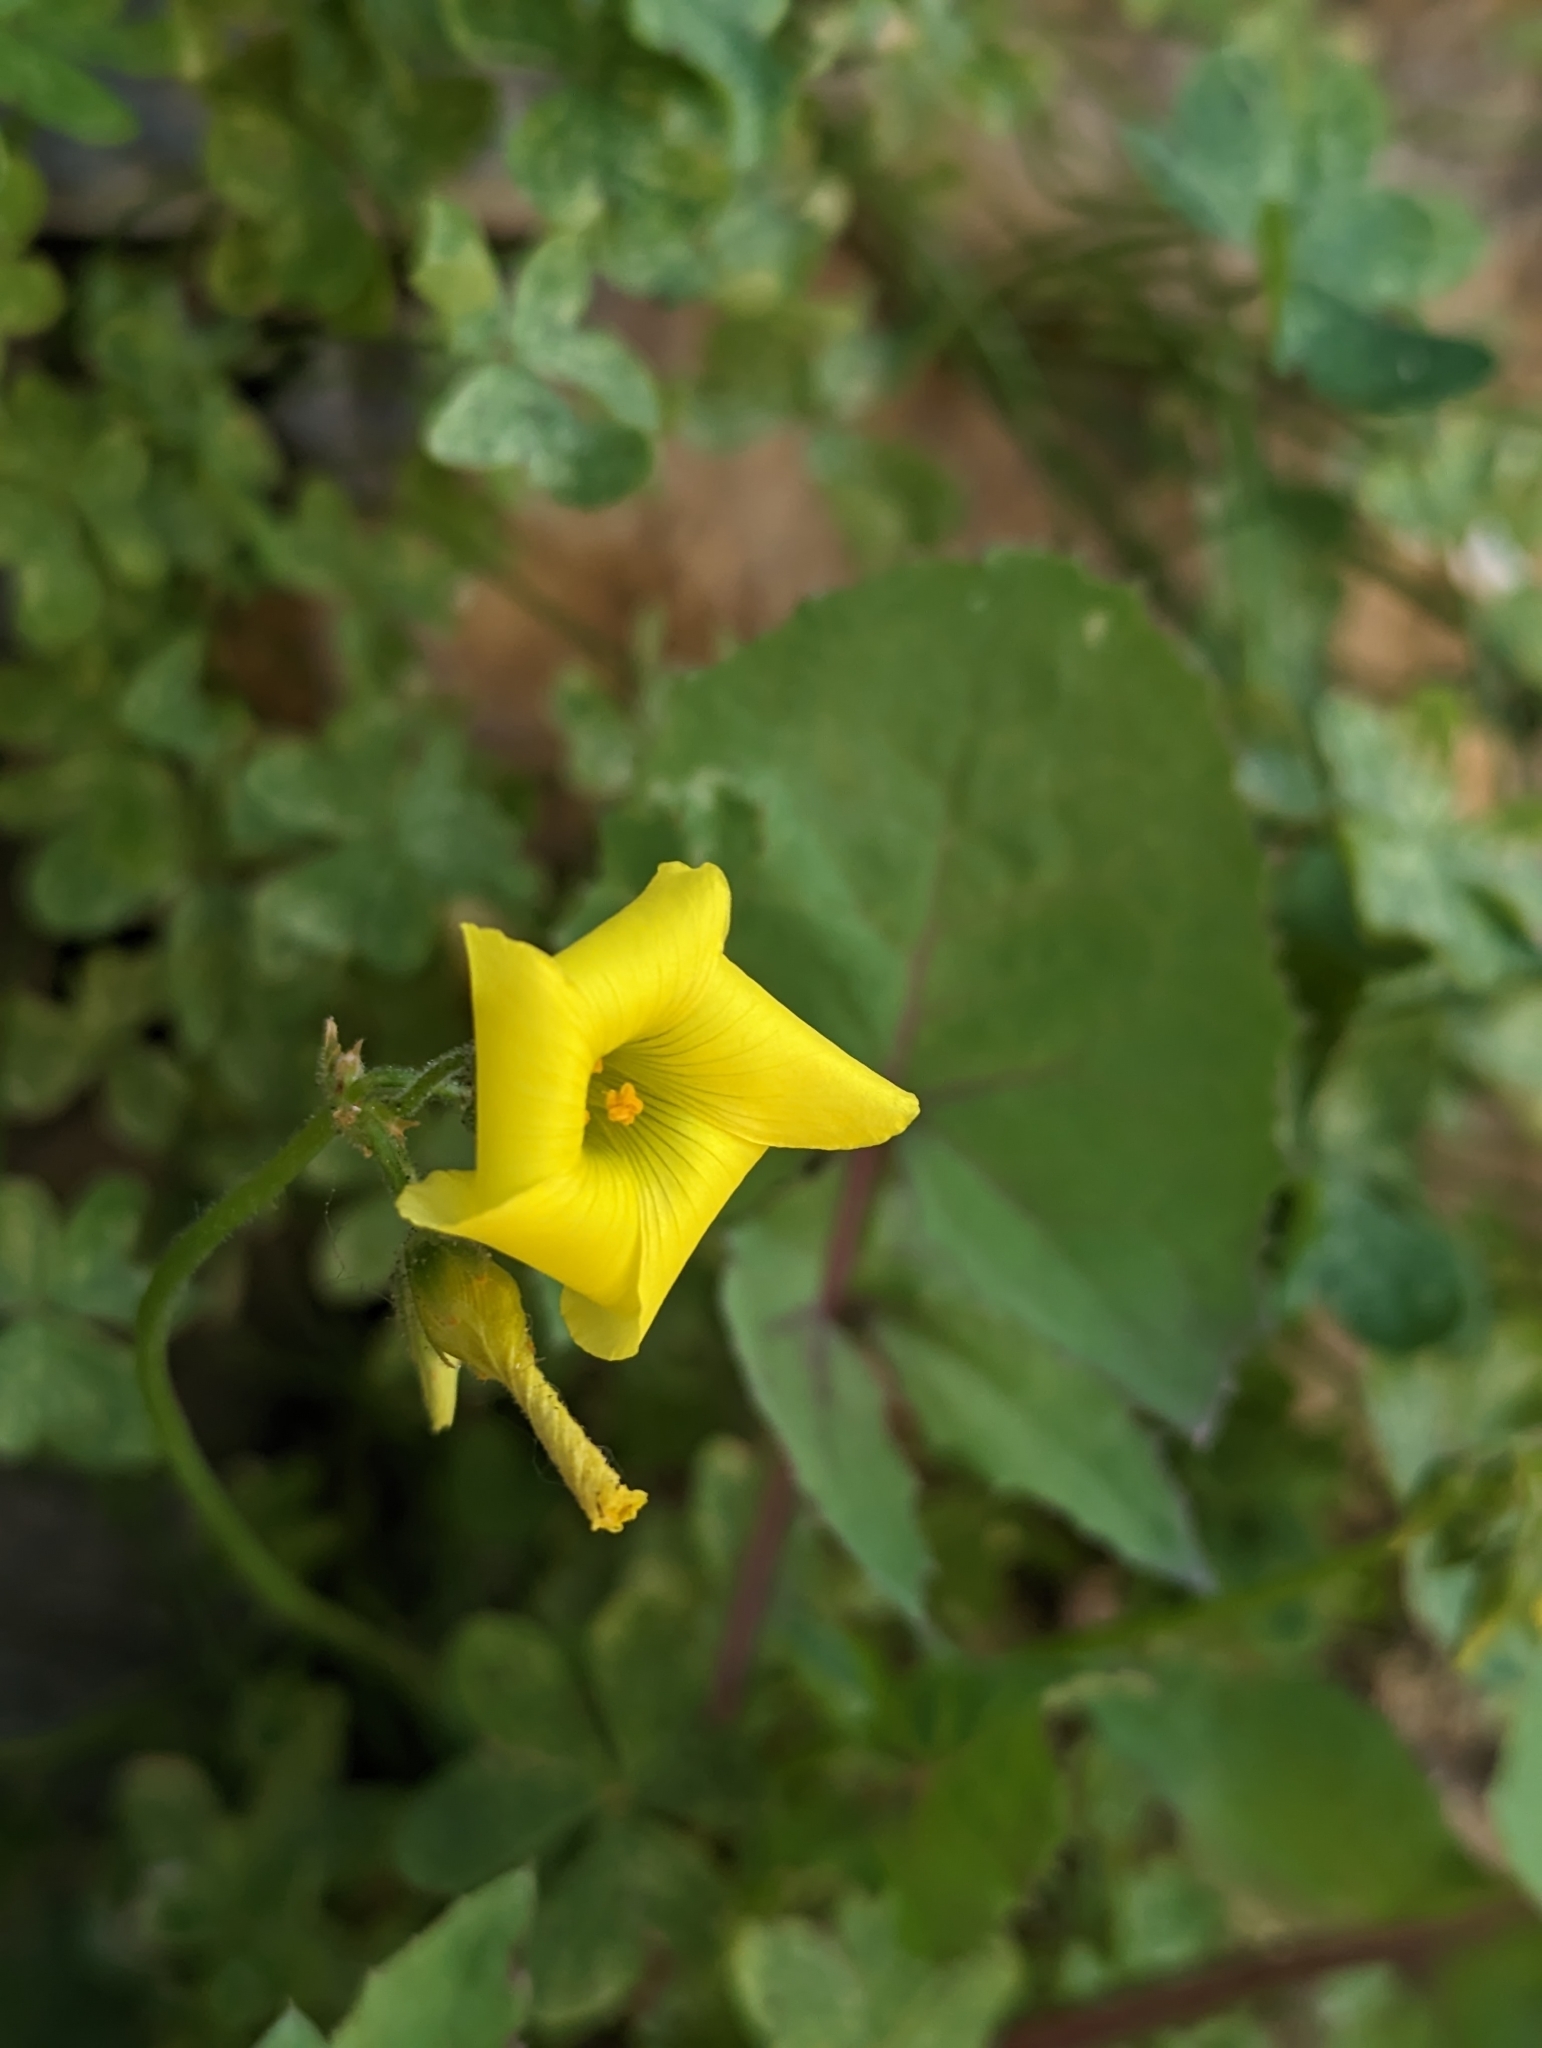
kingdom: Plantae
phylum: Tracheophyta
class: Magnoliopsida
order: Oxalidales
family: Oxalidaceae
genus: Oxalis
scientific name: Oxalis pes-caprae
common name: Bermuda-buttercup
